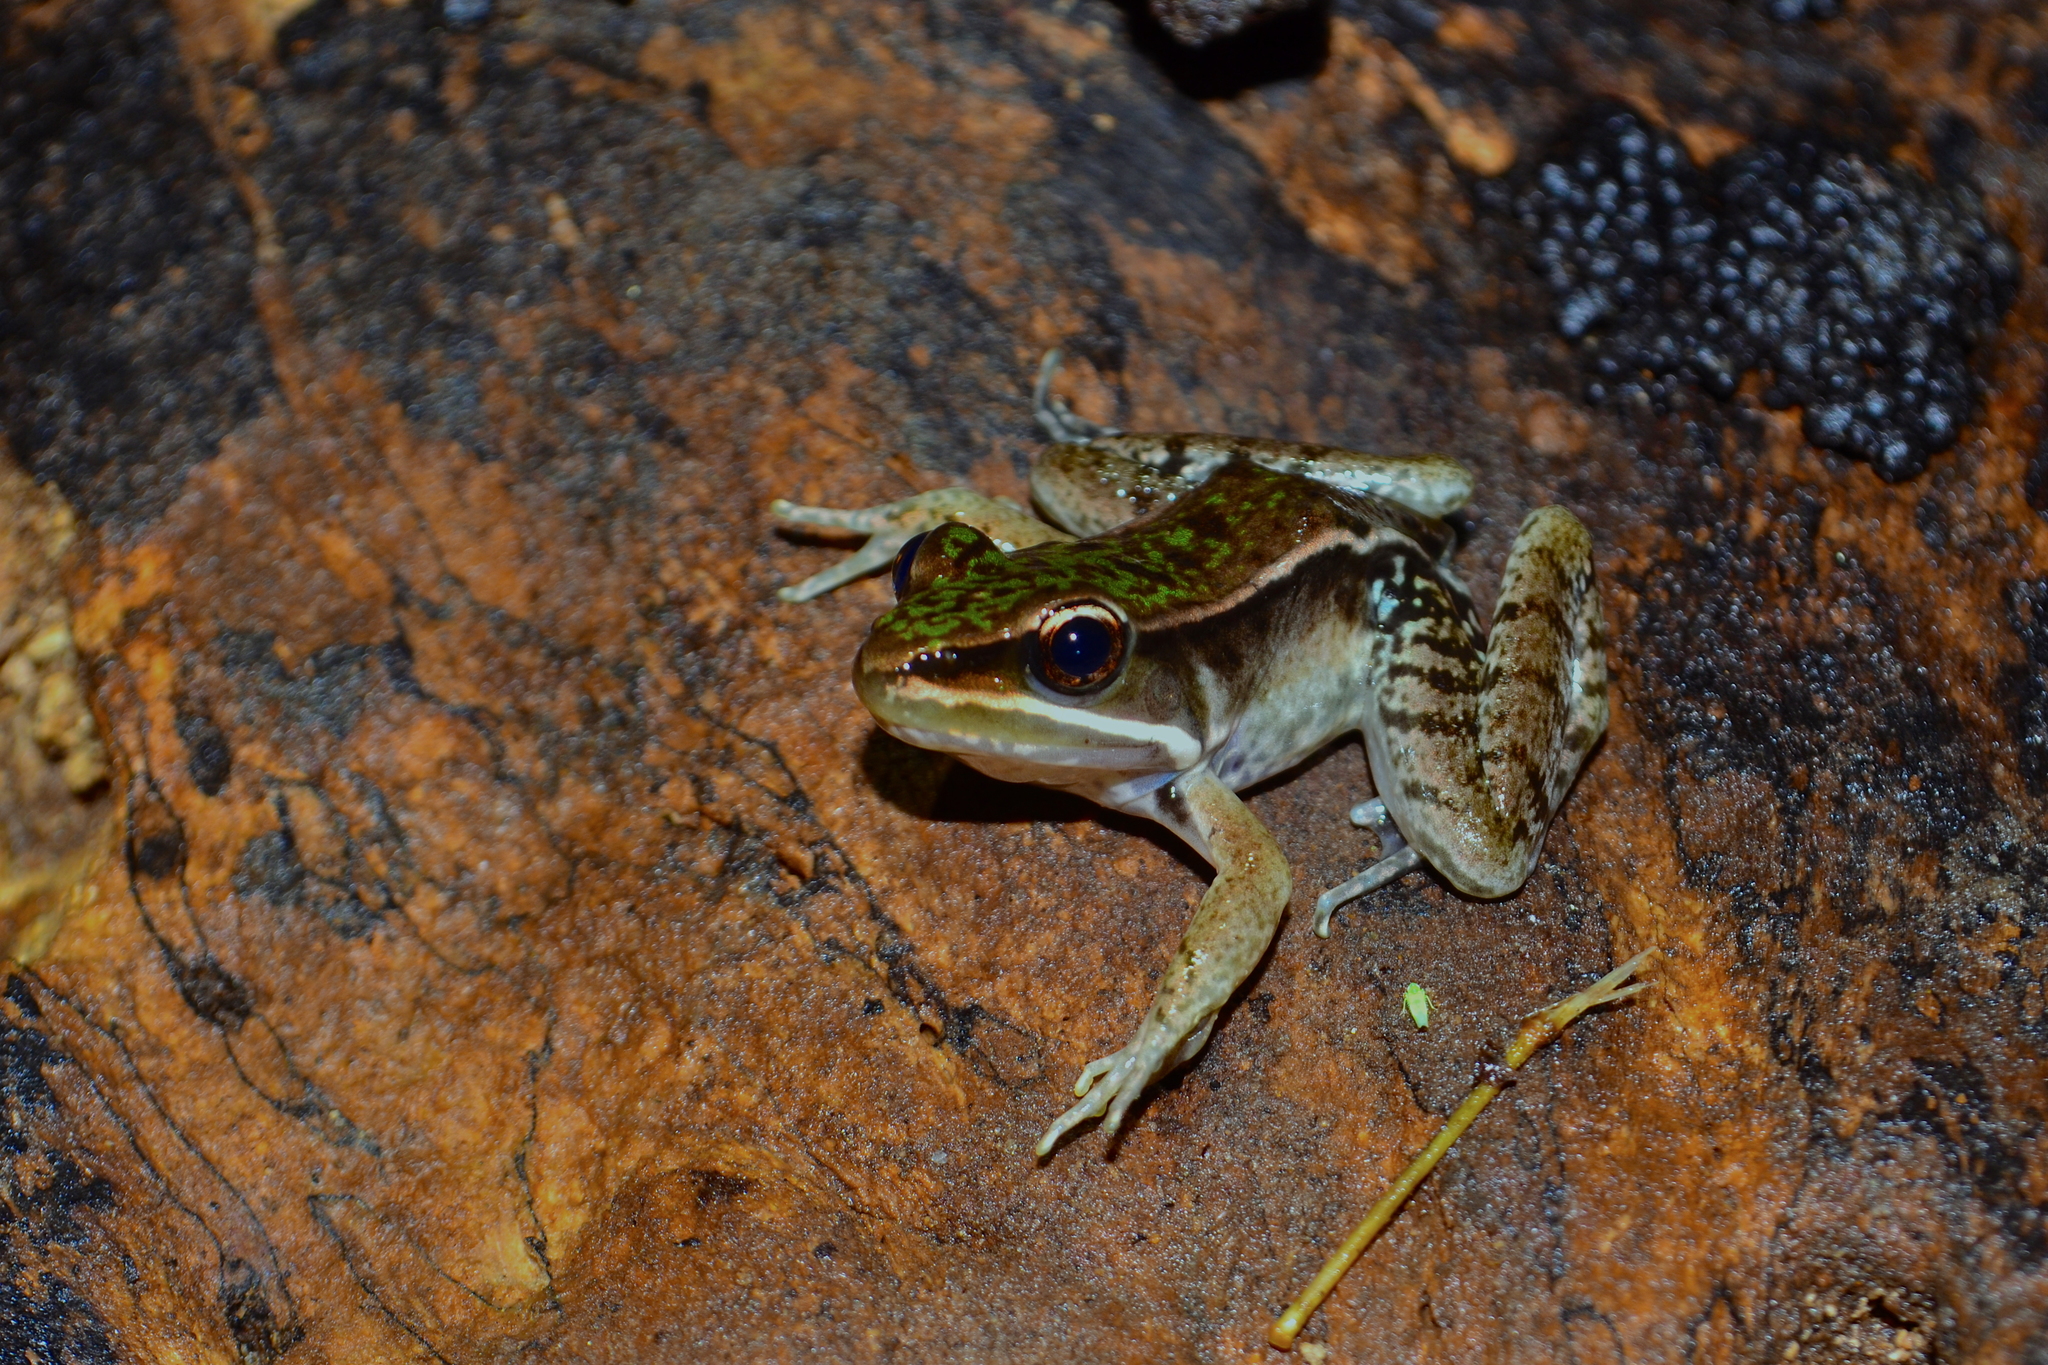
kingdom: Animalia
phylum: Chordata
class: Amphibia
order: Anura
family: Ranidae
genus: Lithobates
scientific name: Lithobates maculatus
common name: Highland frog
